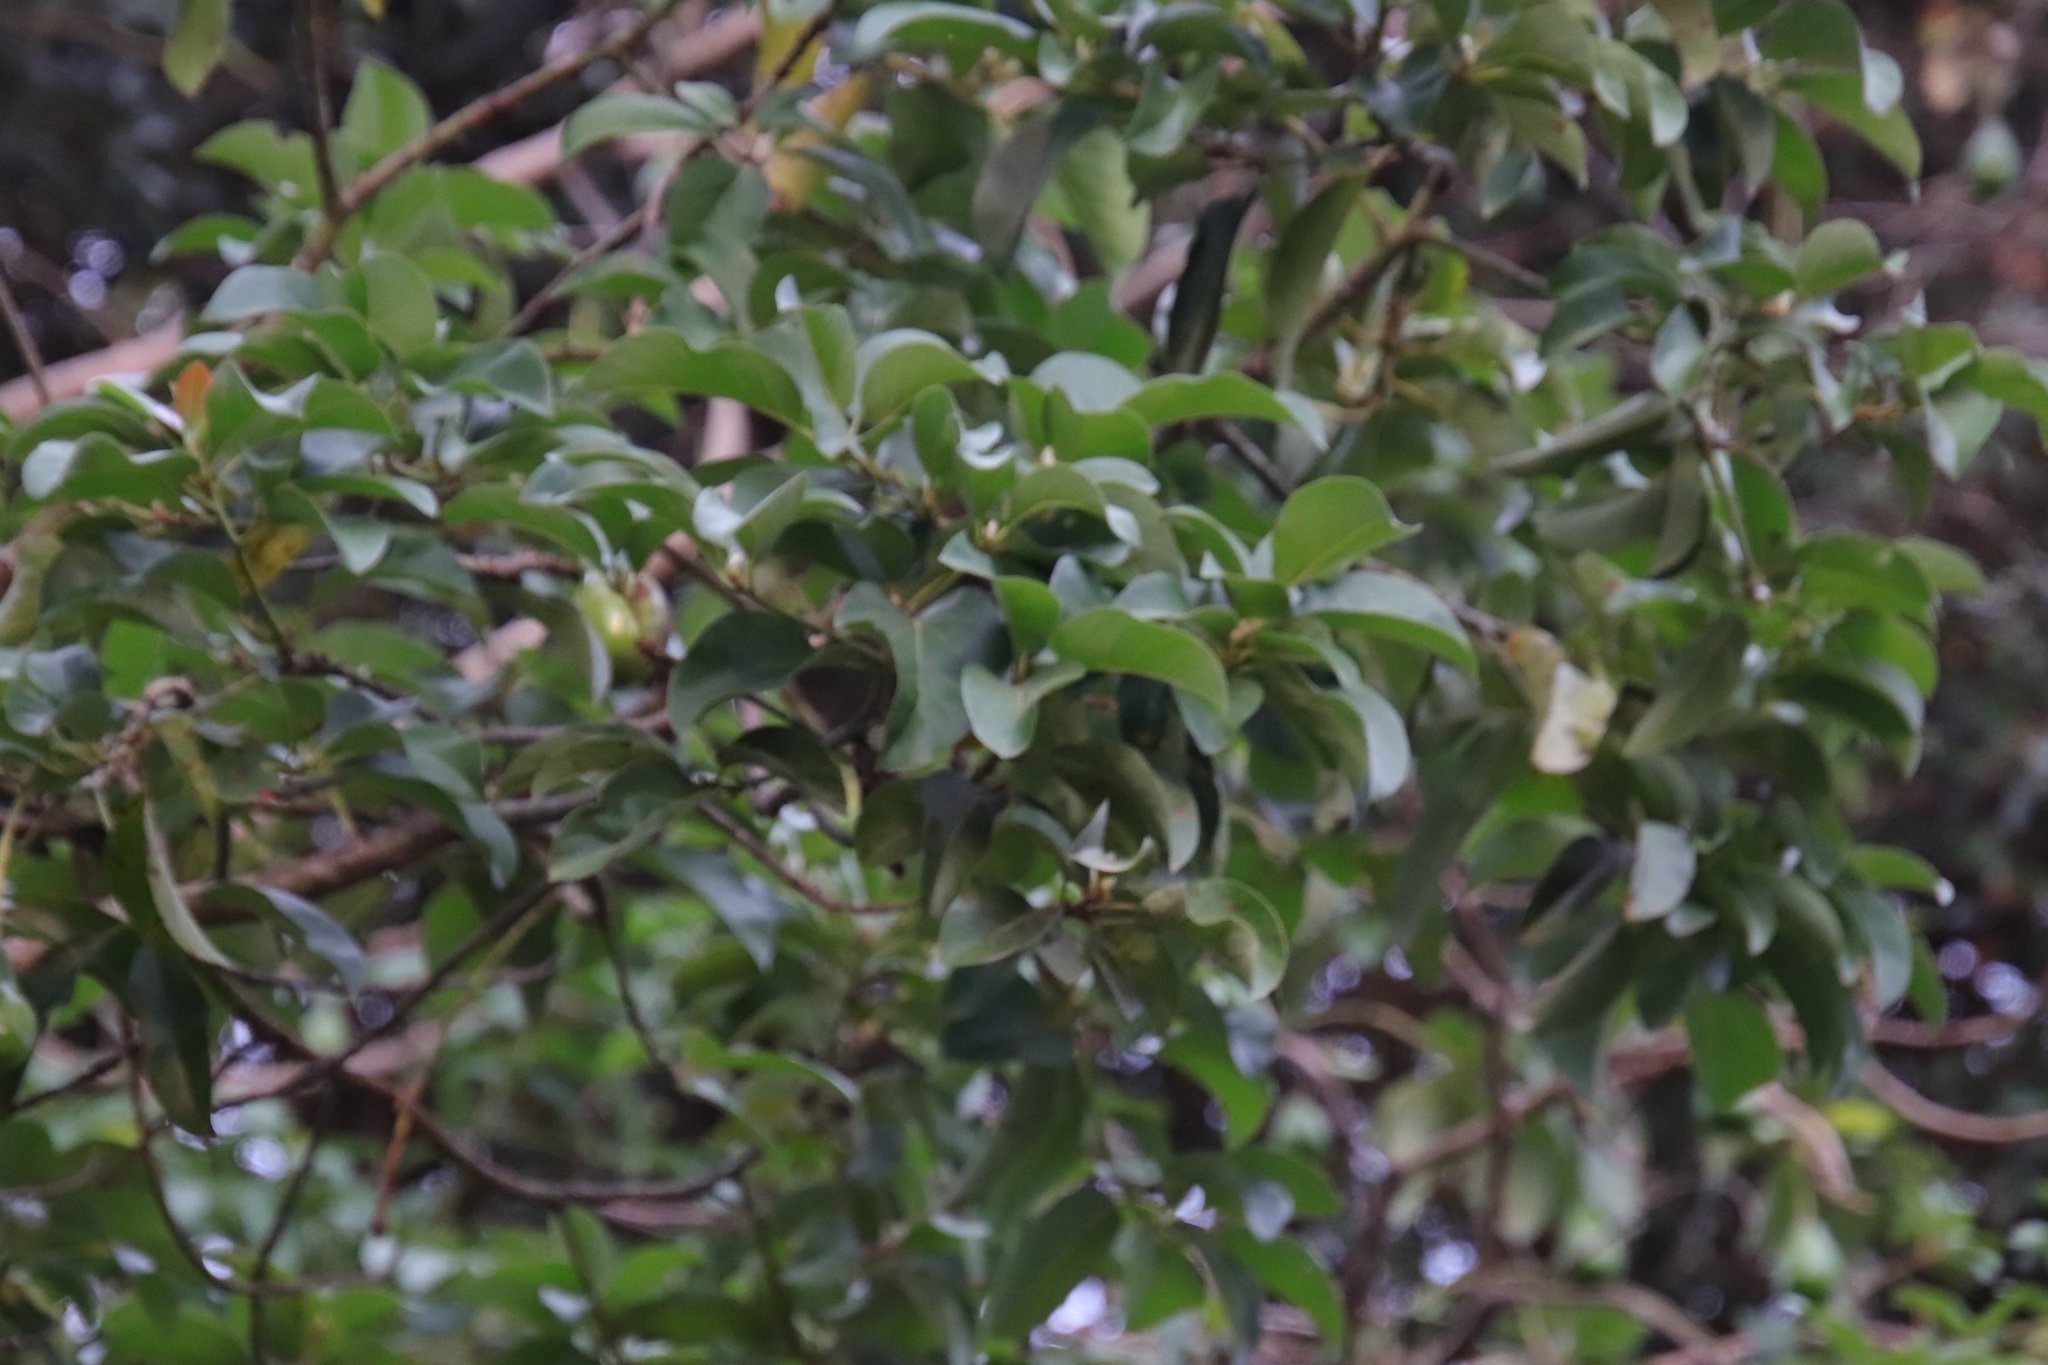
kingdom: Plantae
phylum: Tracheophyta
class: Magnoliopsida
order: Laurales
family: Lauraceae
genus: Persea
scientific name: Persea americana
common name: Avocado
